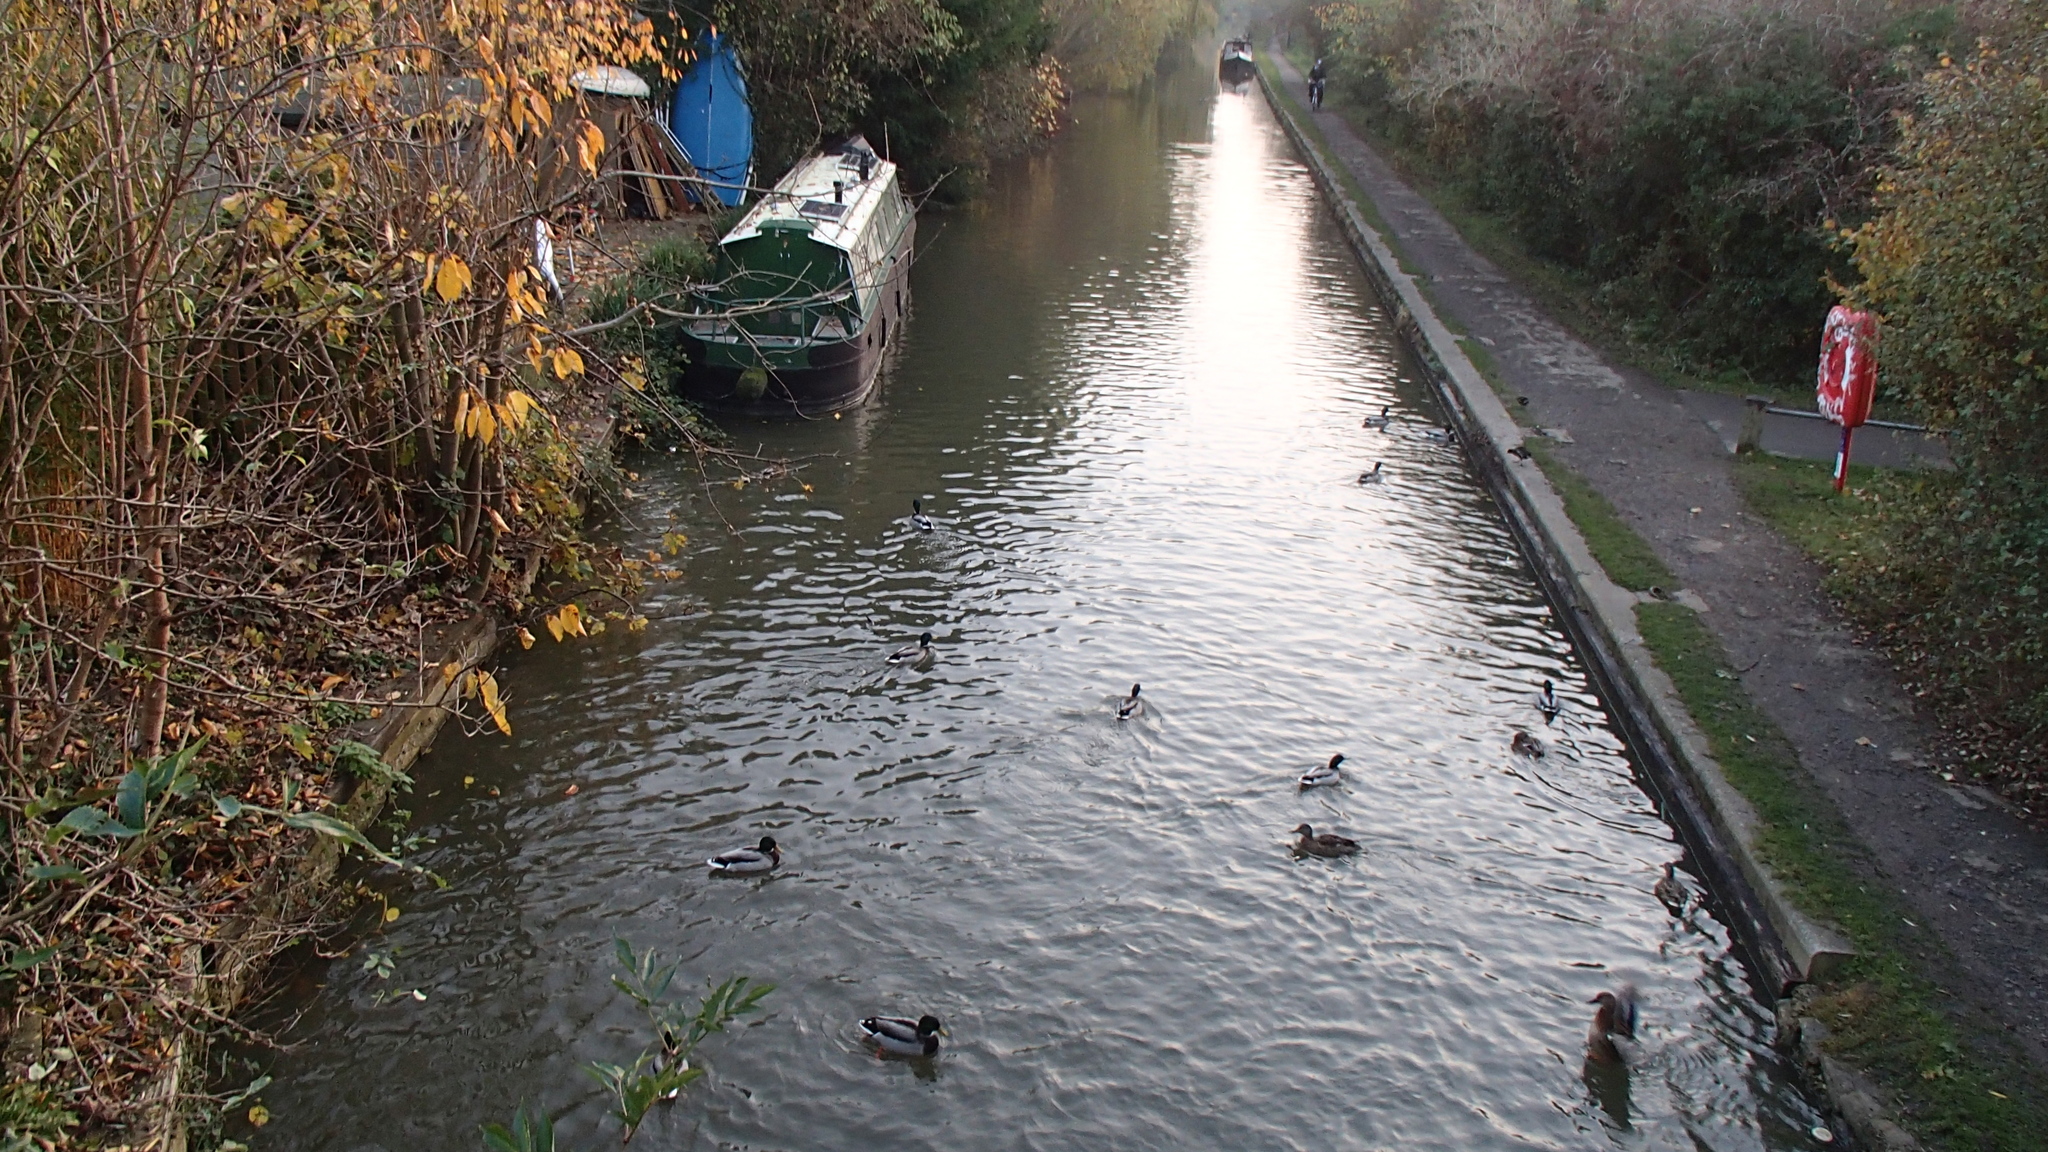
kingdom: Animalia
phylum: Chordata
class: Aves
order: Anseriformes
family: Anatidae
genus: Anas
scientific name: Anas platyrhynchos
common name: Mallard
